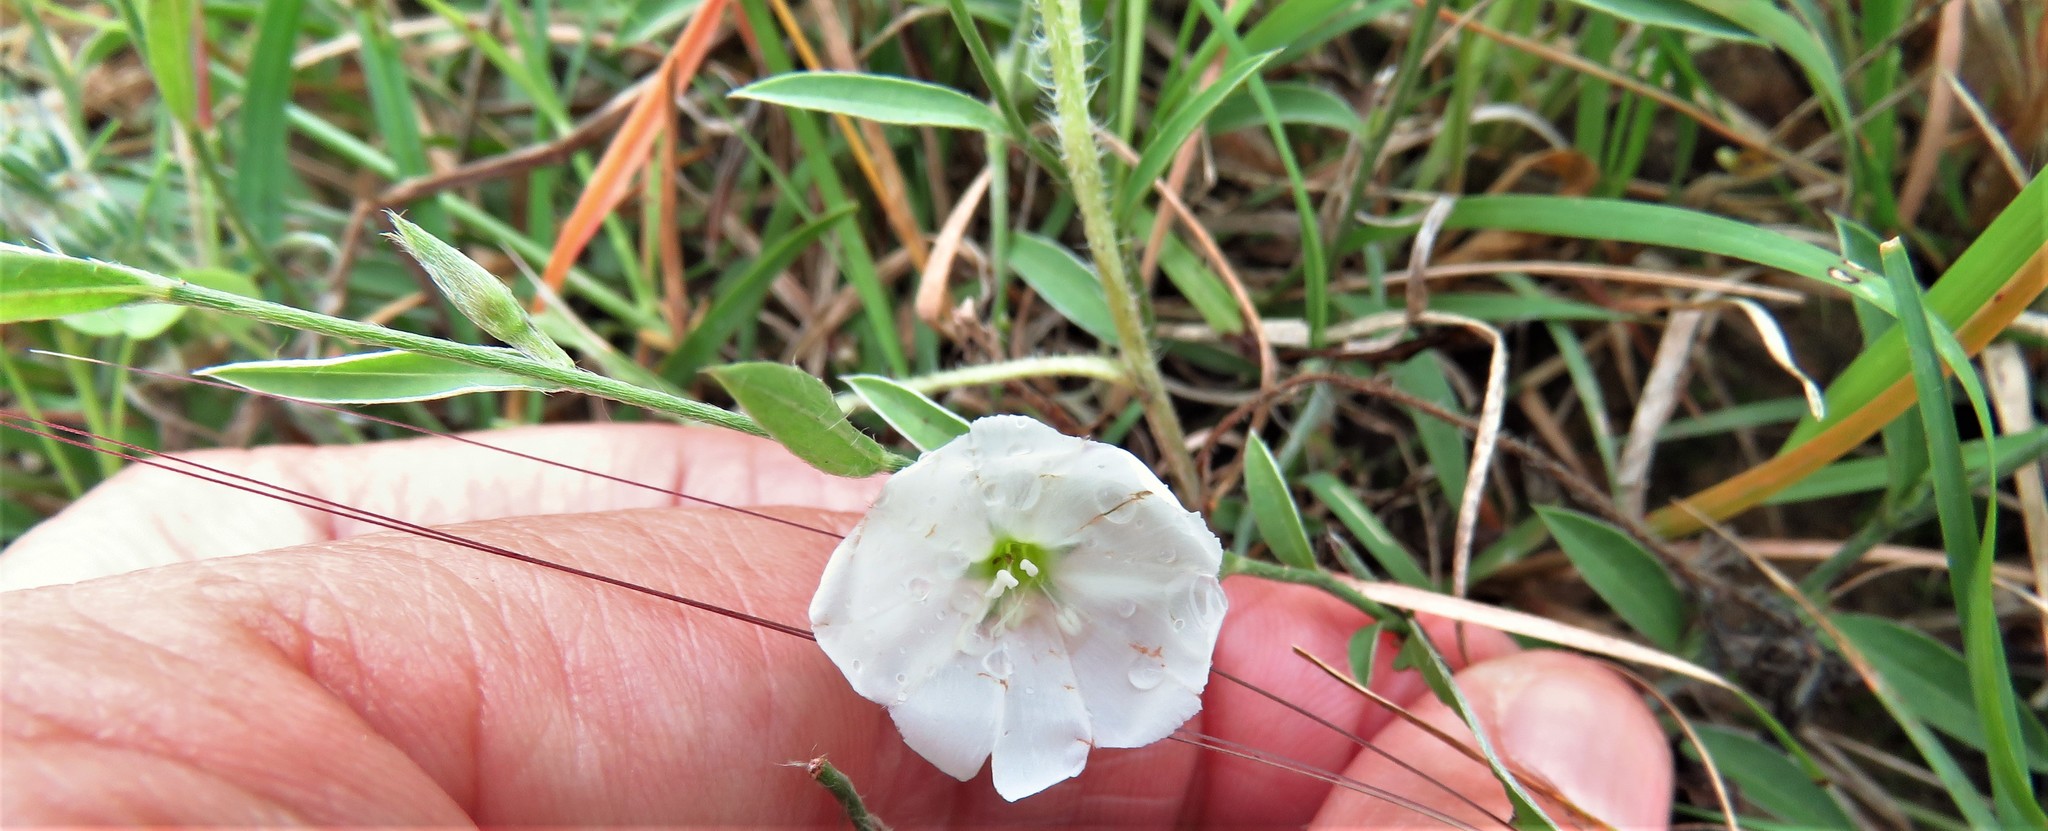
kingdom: Plantae
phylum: Tracheophyta
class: Magnoliopsida
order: Solanales
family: Convolvulaceae
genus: Evolvulus
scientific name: Evolvulus sericeus
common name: Blue dots
